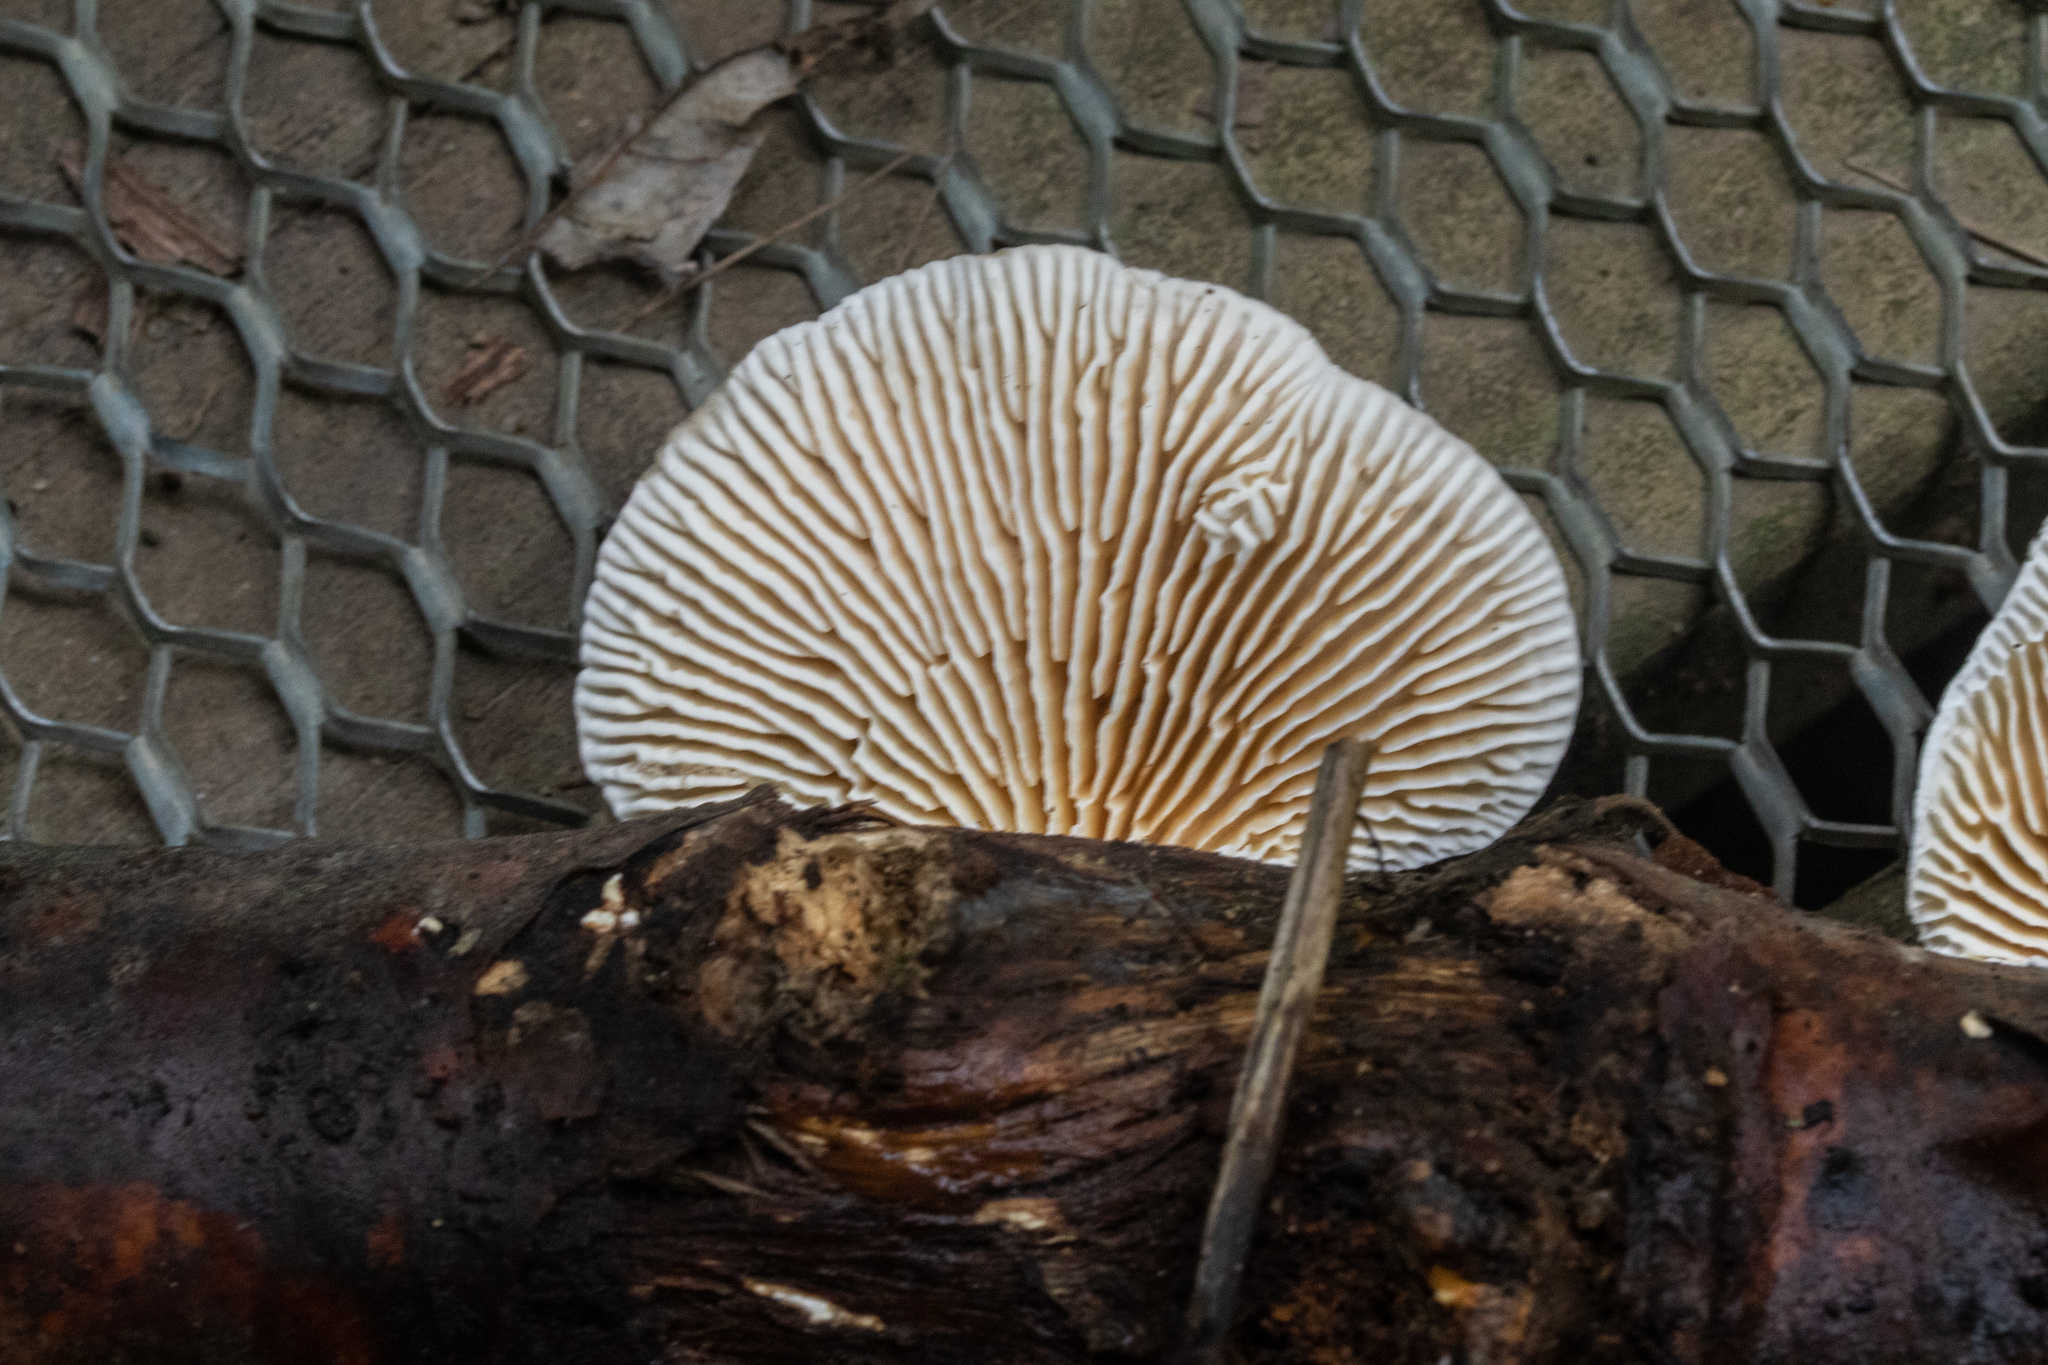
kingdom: Fungi
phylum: Basidiomycota
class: Agaricomycetes
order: Polyporales
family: Polyporaceae
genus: Lenzites
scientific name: Lenzites betulinus
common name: Birch mazegill
